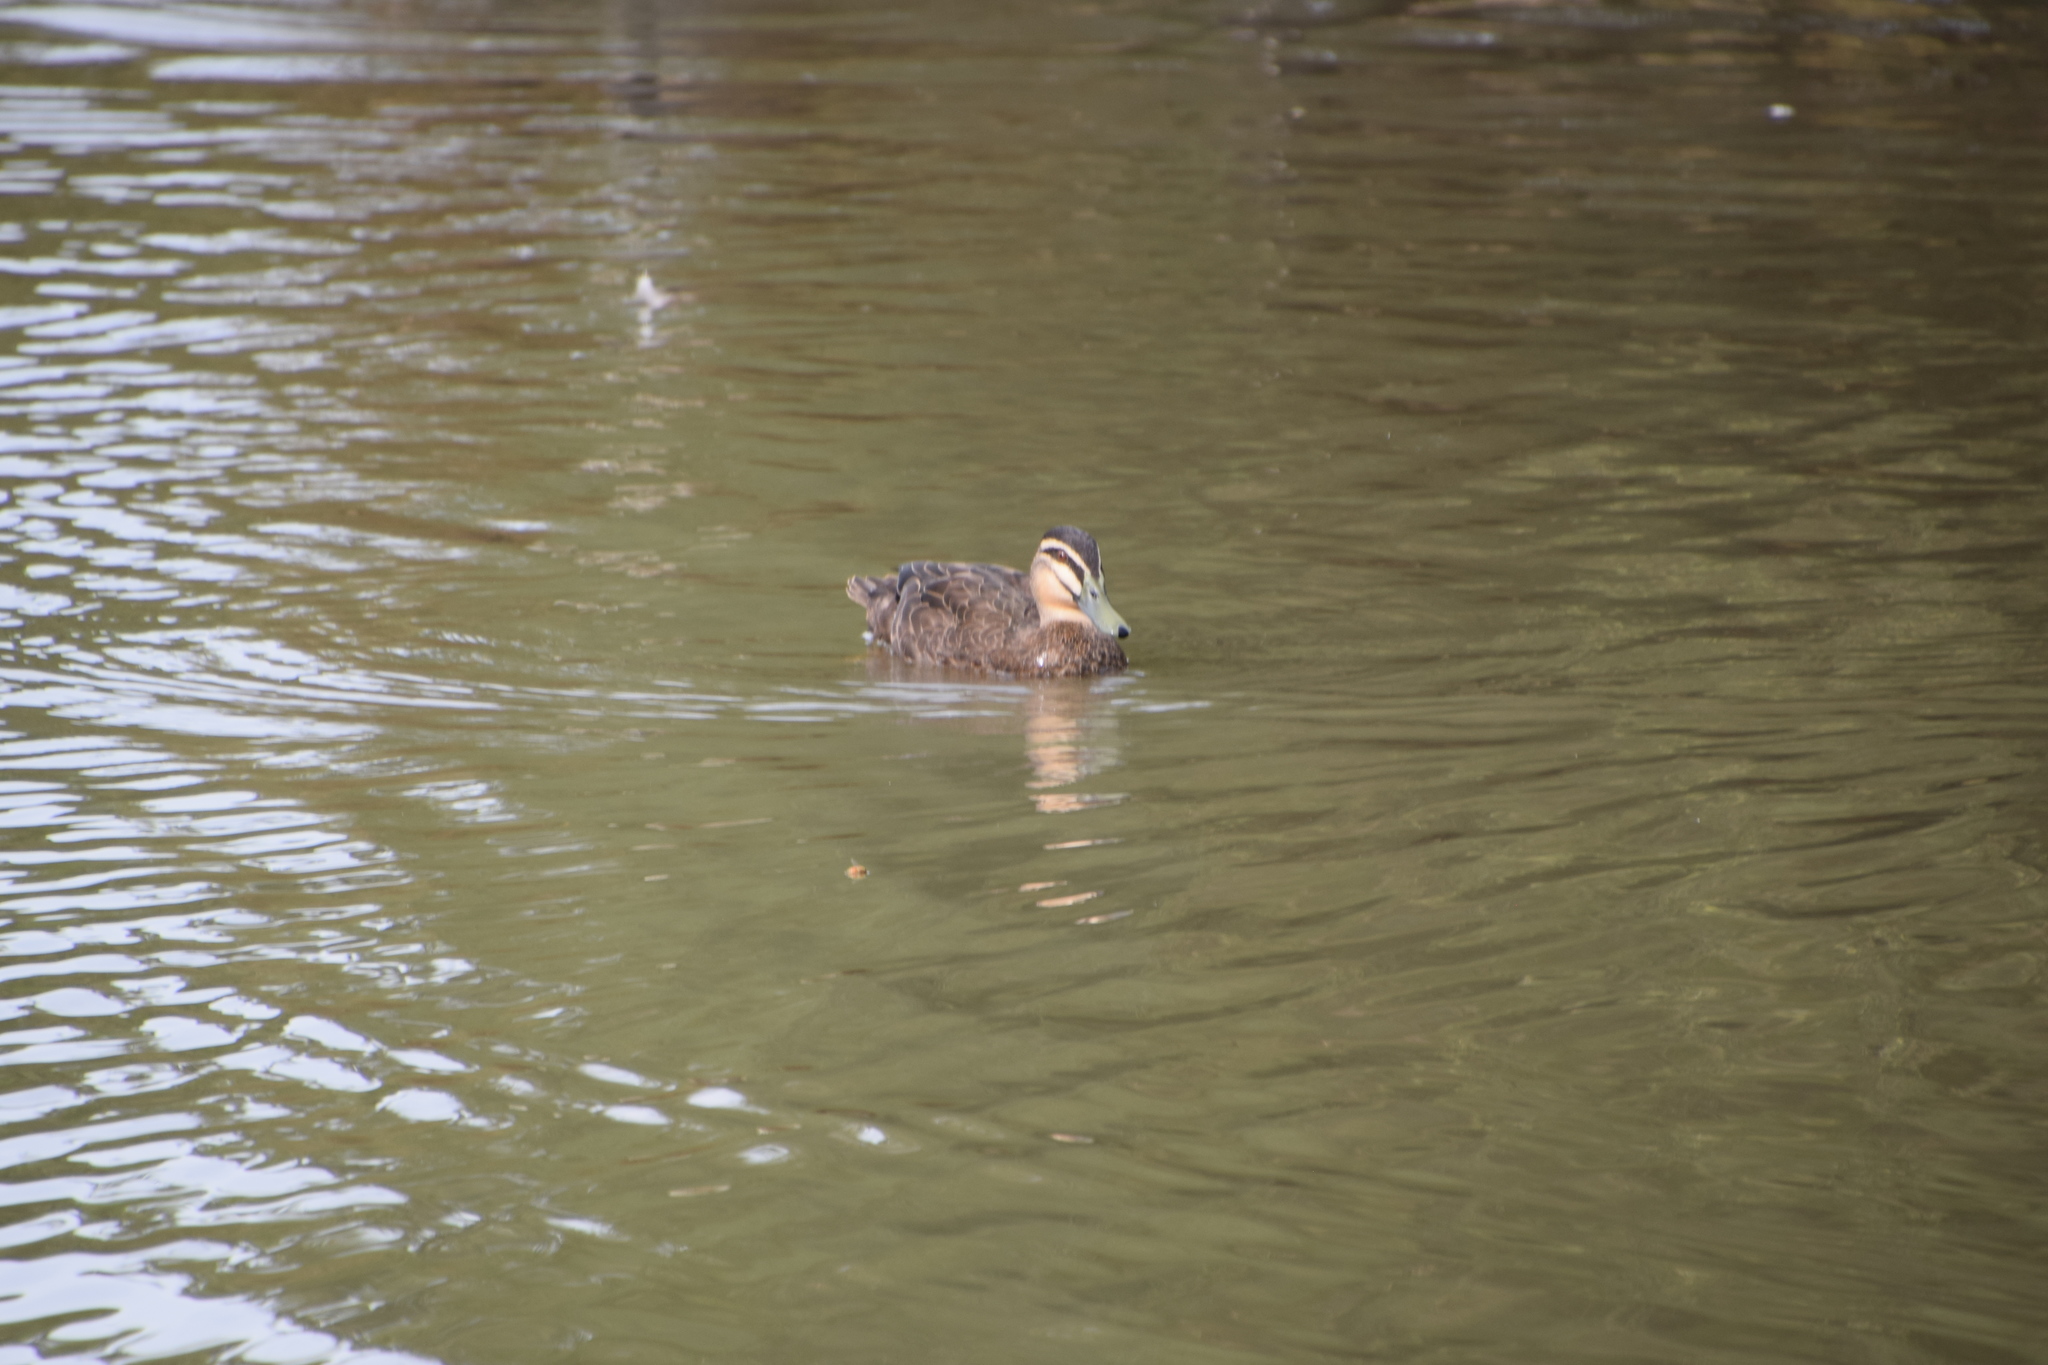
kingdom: Animalia
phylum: Chordata
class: Aves
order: Anseriformes
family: Anatidae
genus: Anas
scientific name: Anas superciliosa
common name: Pacific black duck
